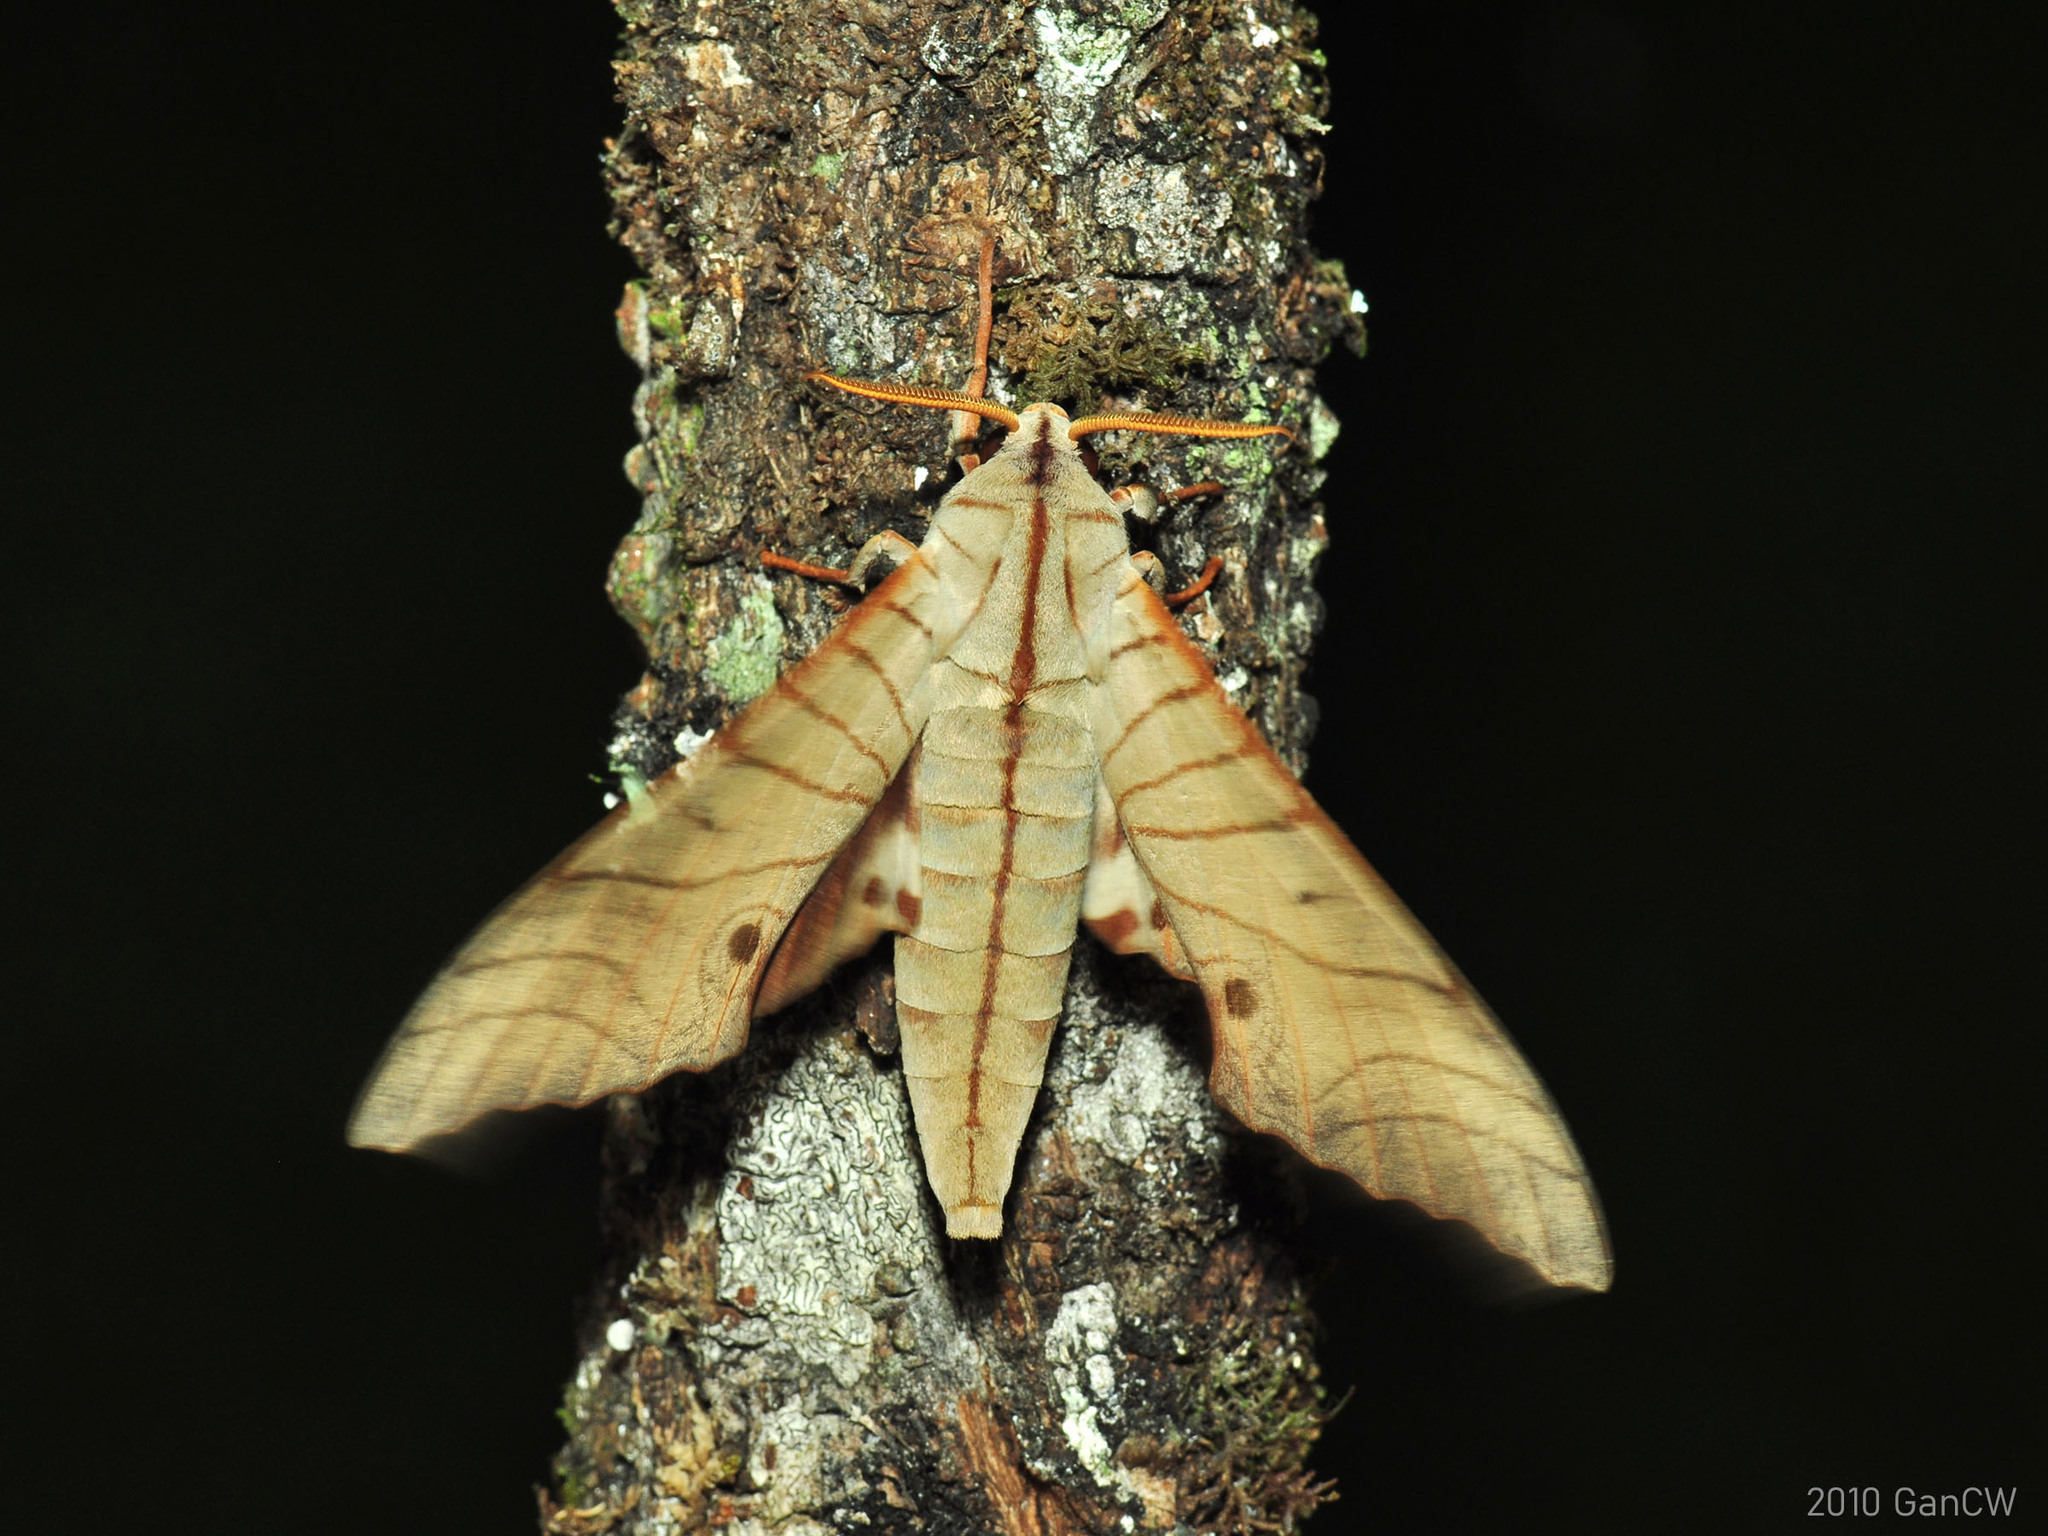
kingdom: Animalia
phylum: Arthropoda
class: Insecta
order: Lepidoptera
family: Sphingidae
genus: Marumba
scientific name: Marumba sperchius
